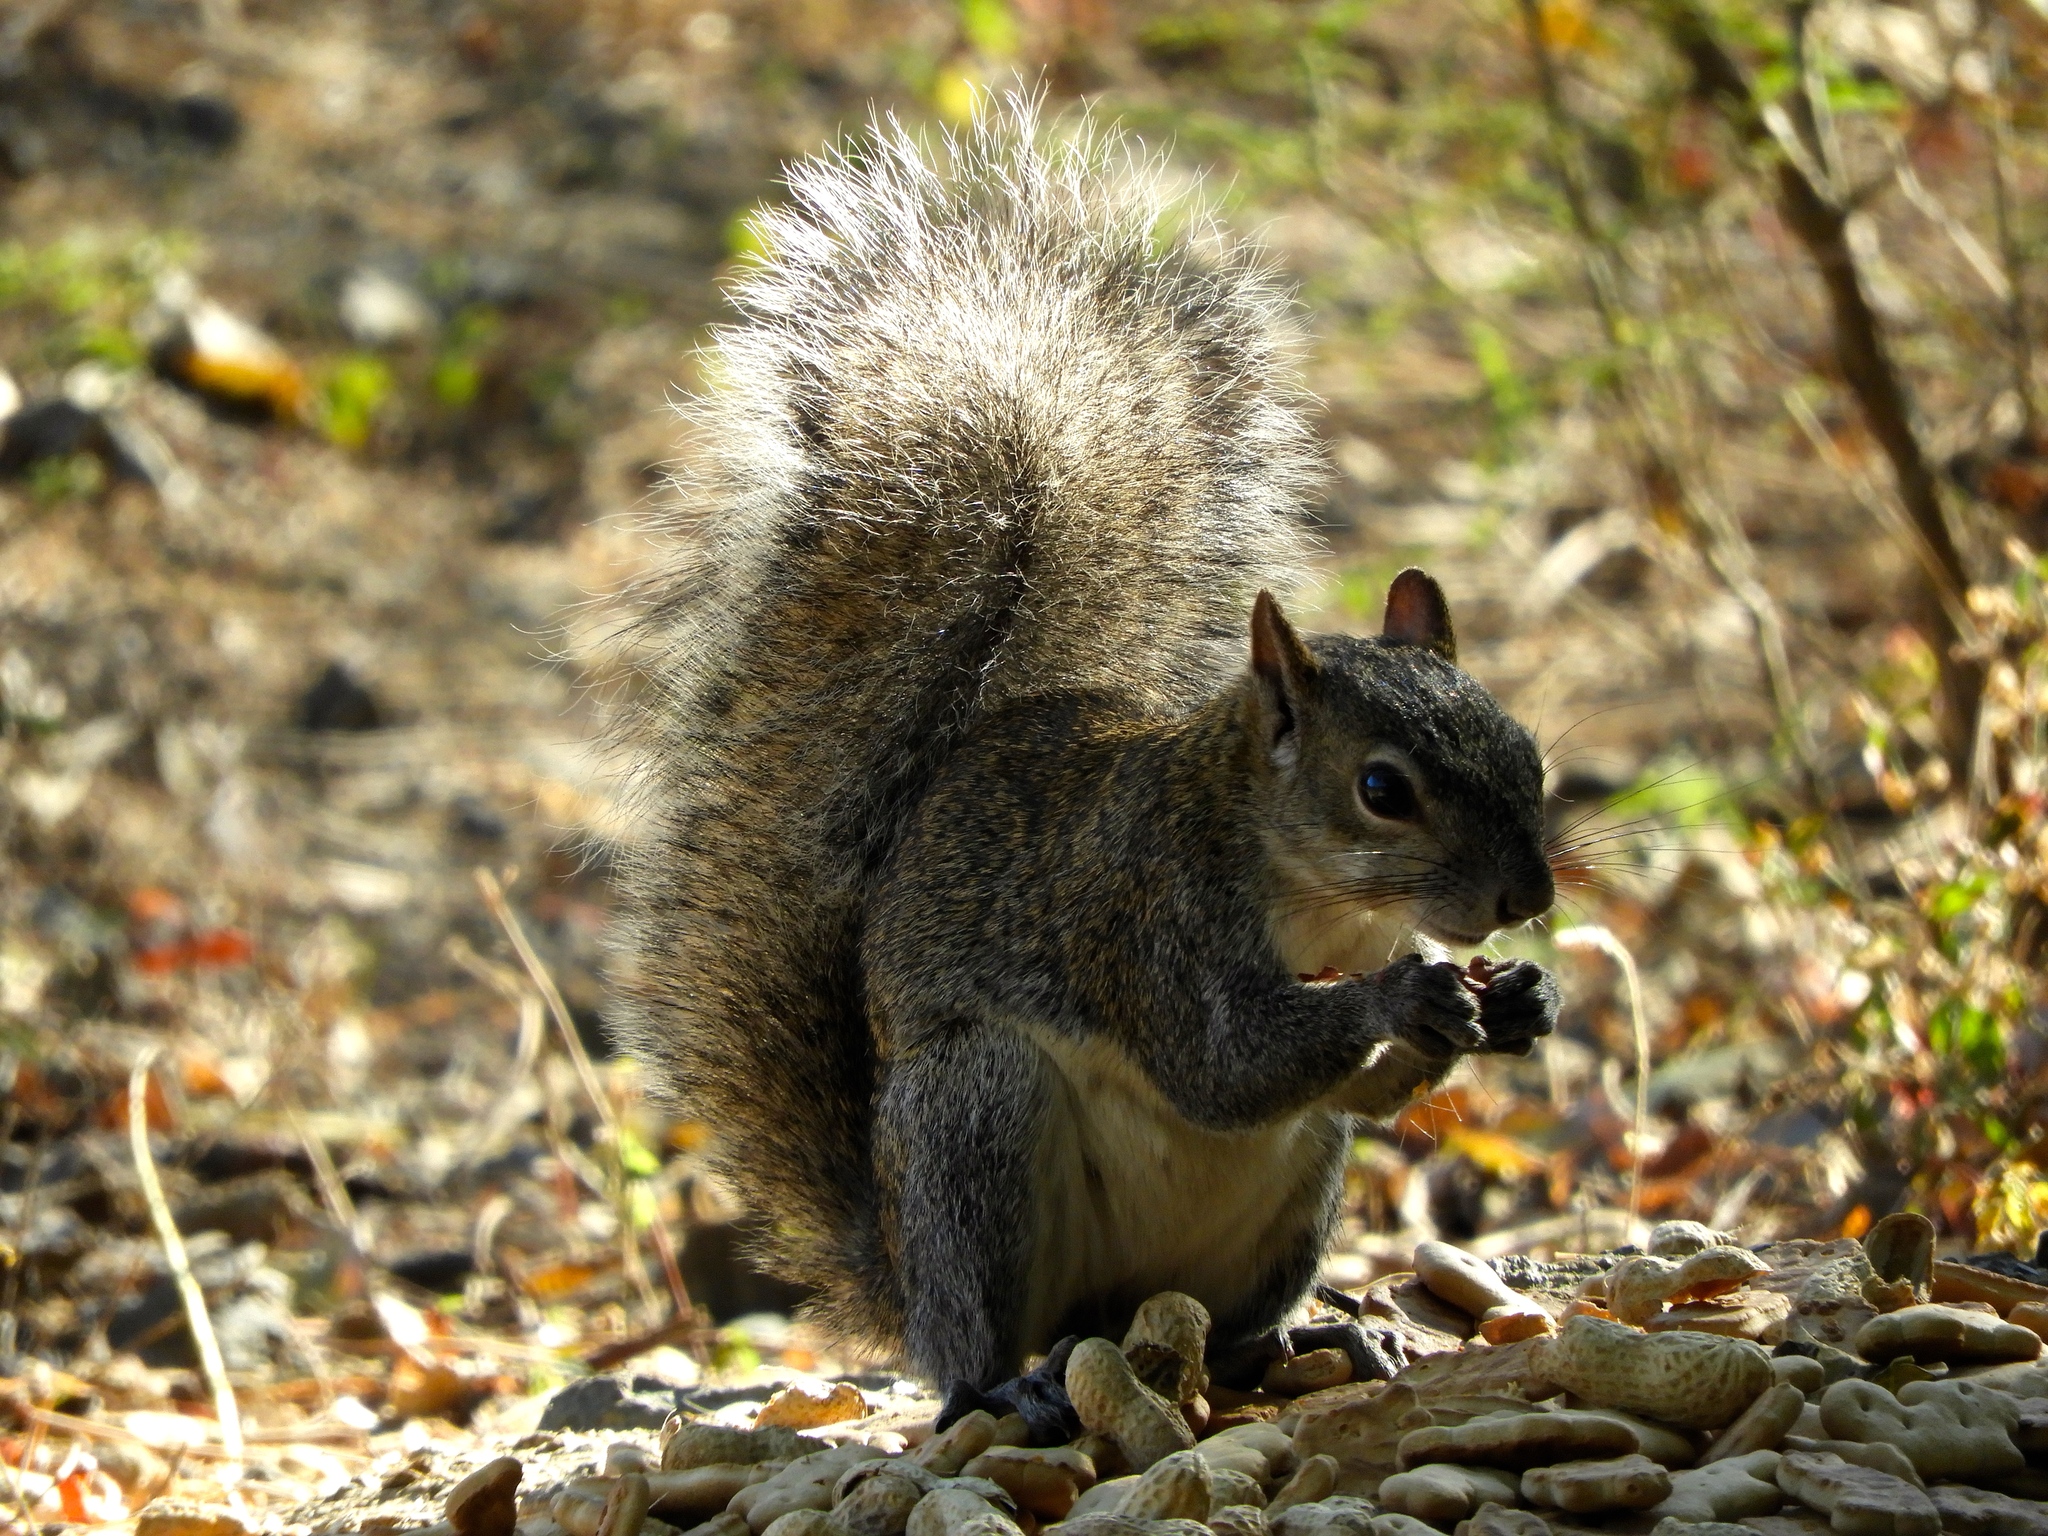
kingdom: Animalia
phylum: Chordata
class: Mammalia
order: Rodentia
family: Sciuridae
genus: Sciurus
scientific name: Sciurus colliaei
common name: Collie's squirrel
